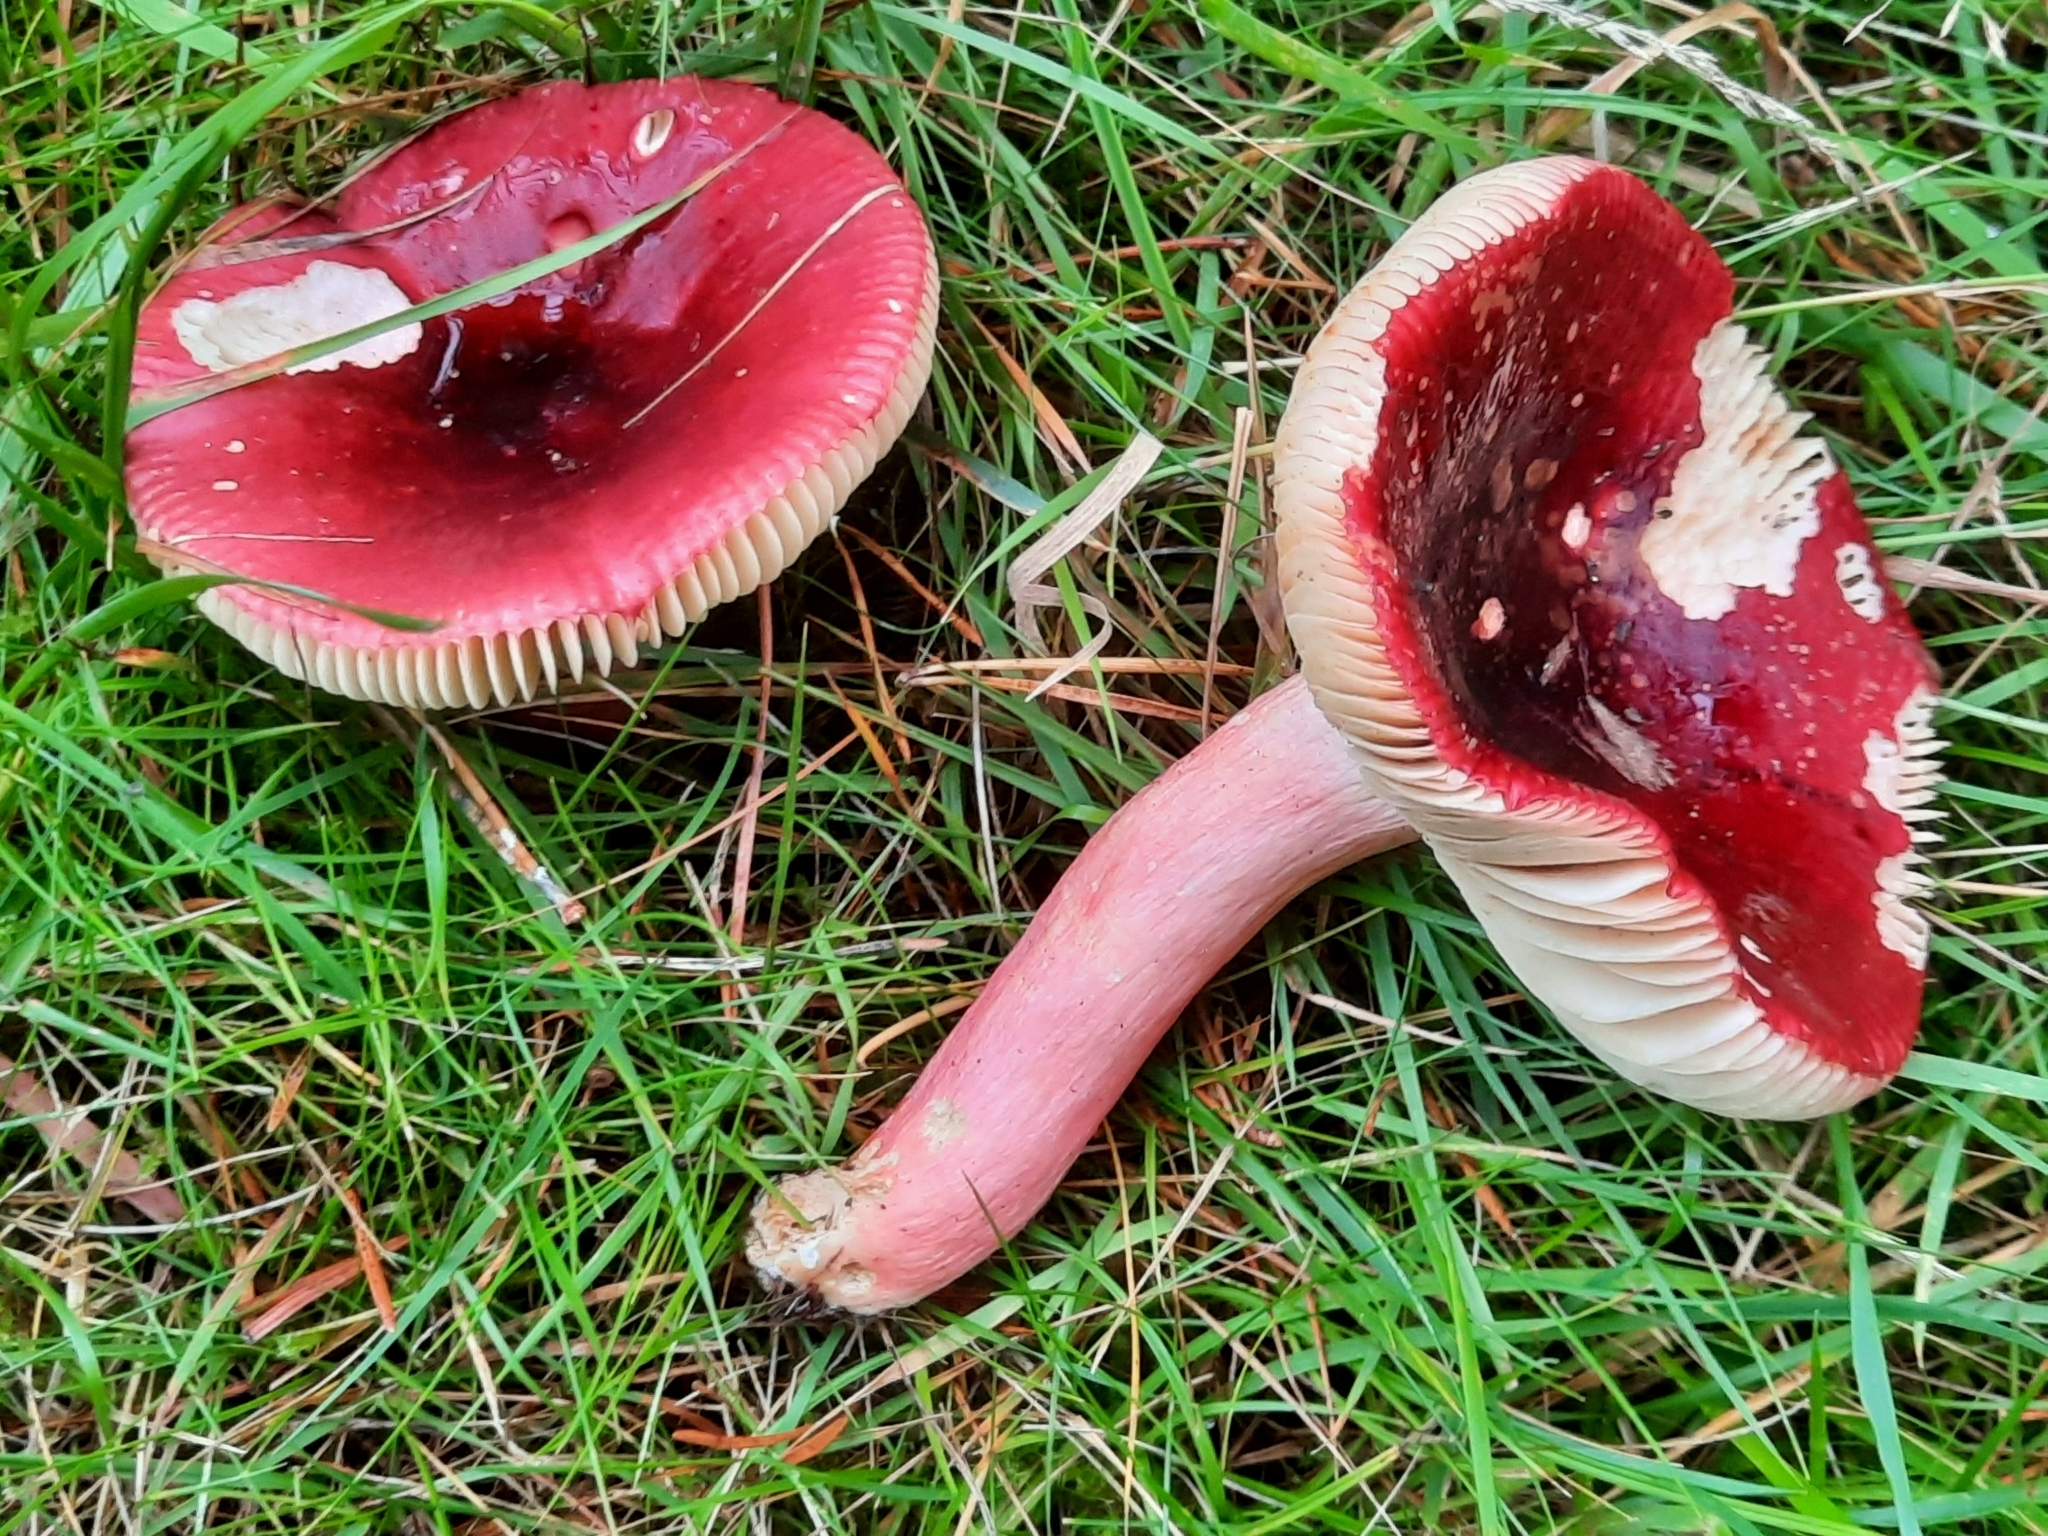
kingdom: Fungi
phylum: Basidiomycota
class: Agaricomycetes
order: Russulales
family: Russulaceae
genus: Russula
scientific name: Russula sardonia
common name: Primrose brittlegill
